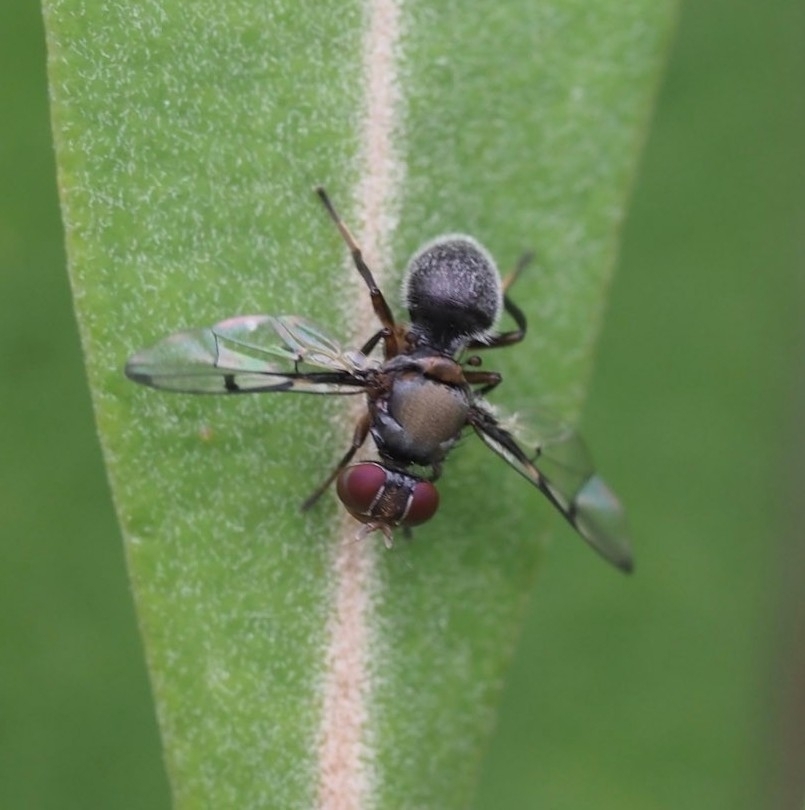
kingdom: Animalia
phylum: Arthropoda
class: Insecta
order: Diptera
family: Platystomatidae
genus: Pogonortalis
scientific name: Pogonortalis doclea
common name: Boatman fly
